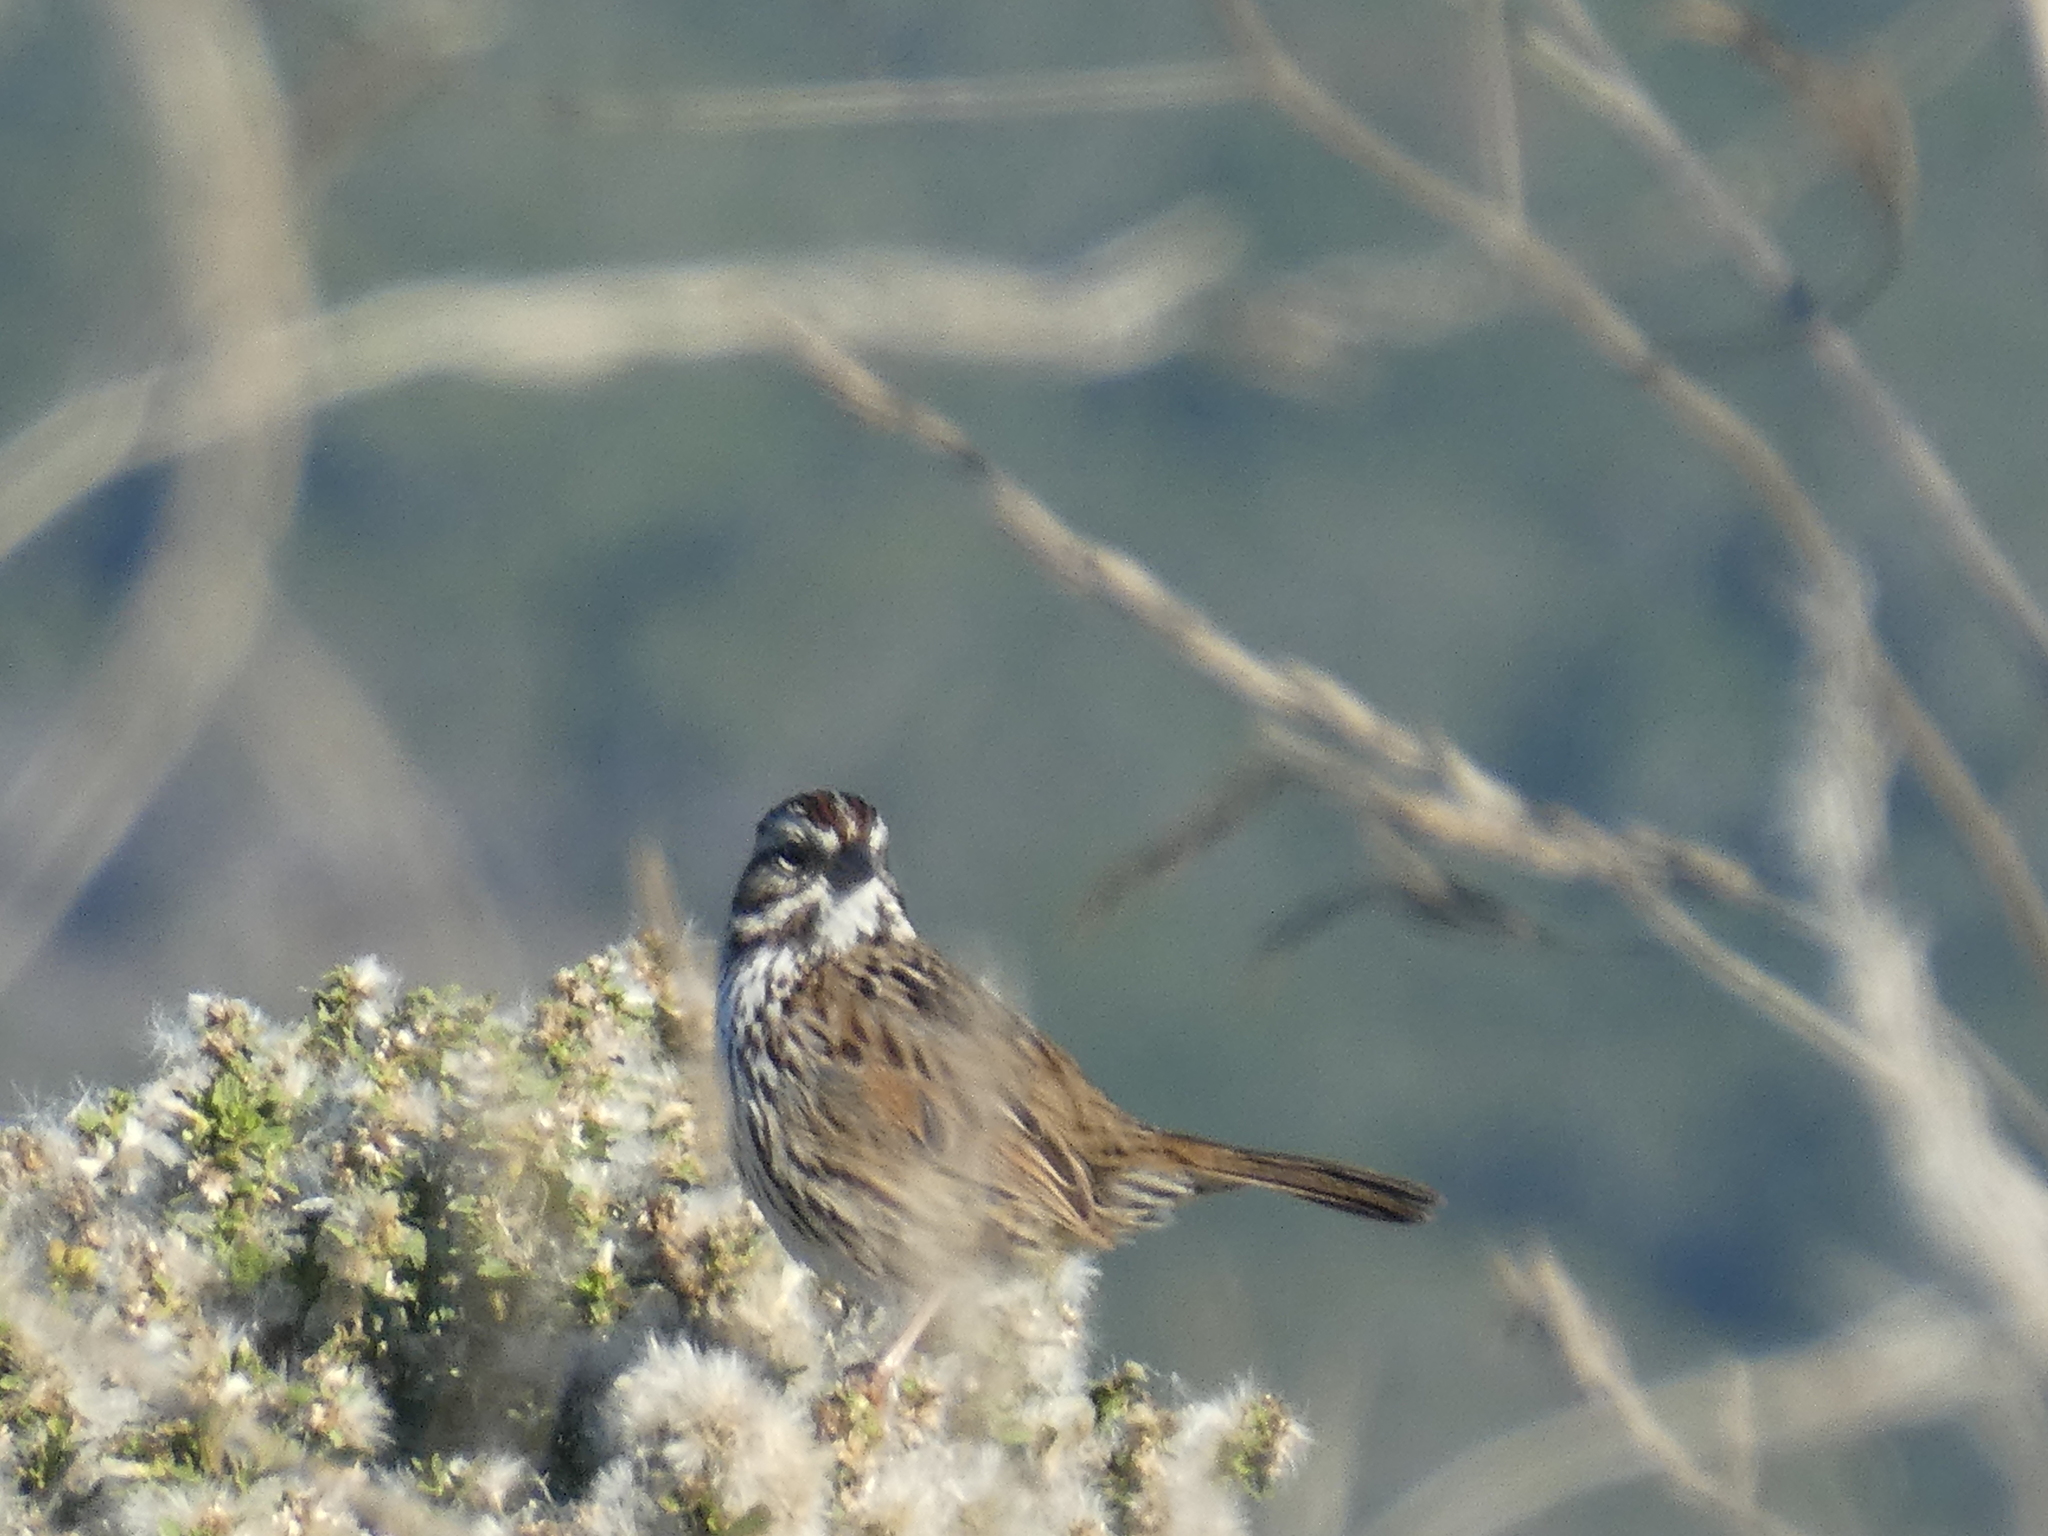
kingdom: Animalia
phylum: Chordata
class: Aves
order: Passeriformes
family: Passerellidae
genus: Melospiza
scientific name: Melospiza melodia
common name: Song sparrow
